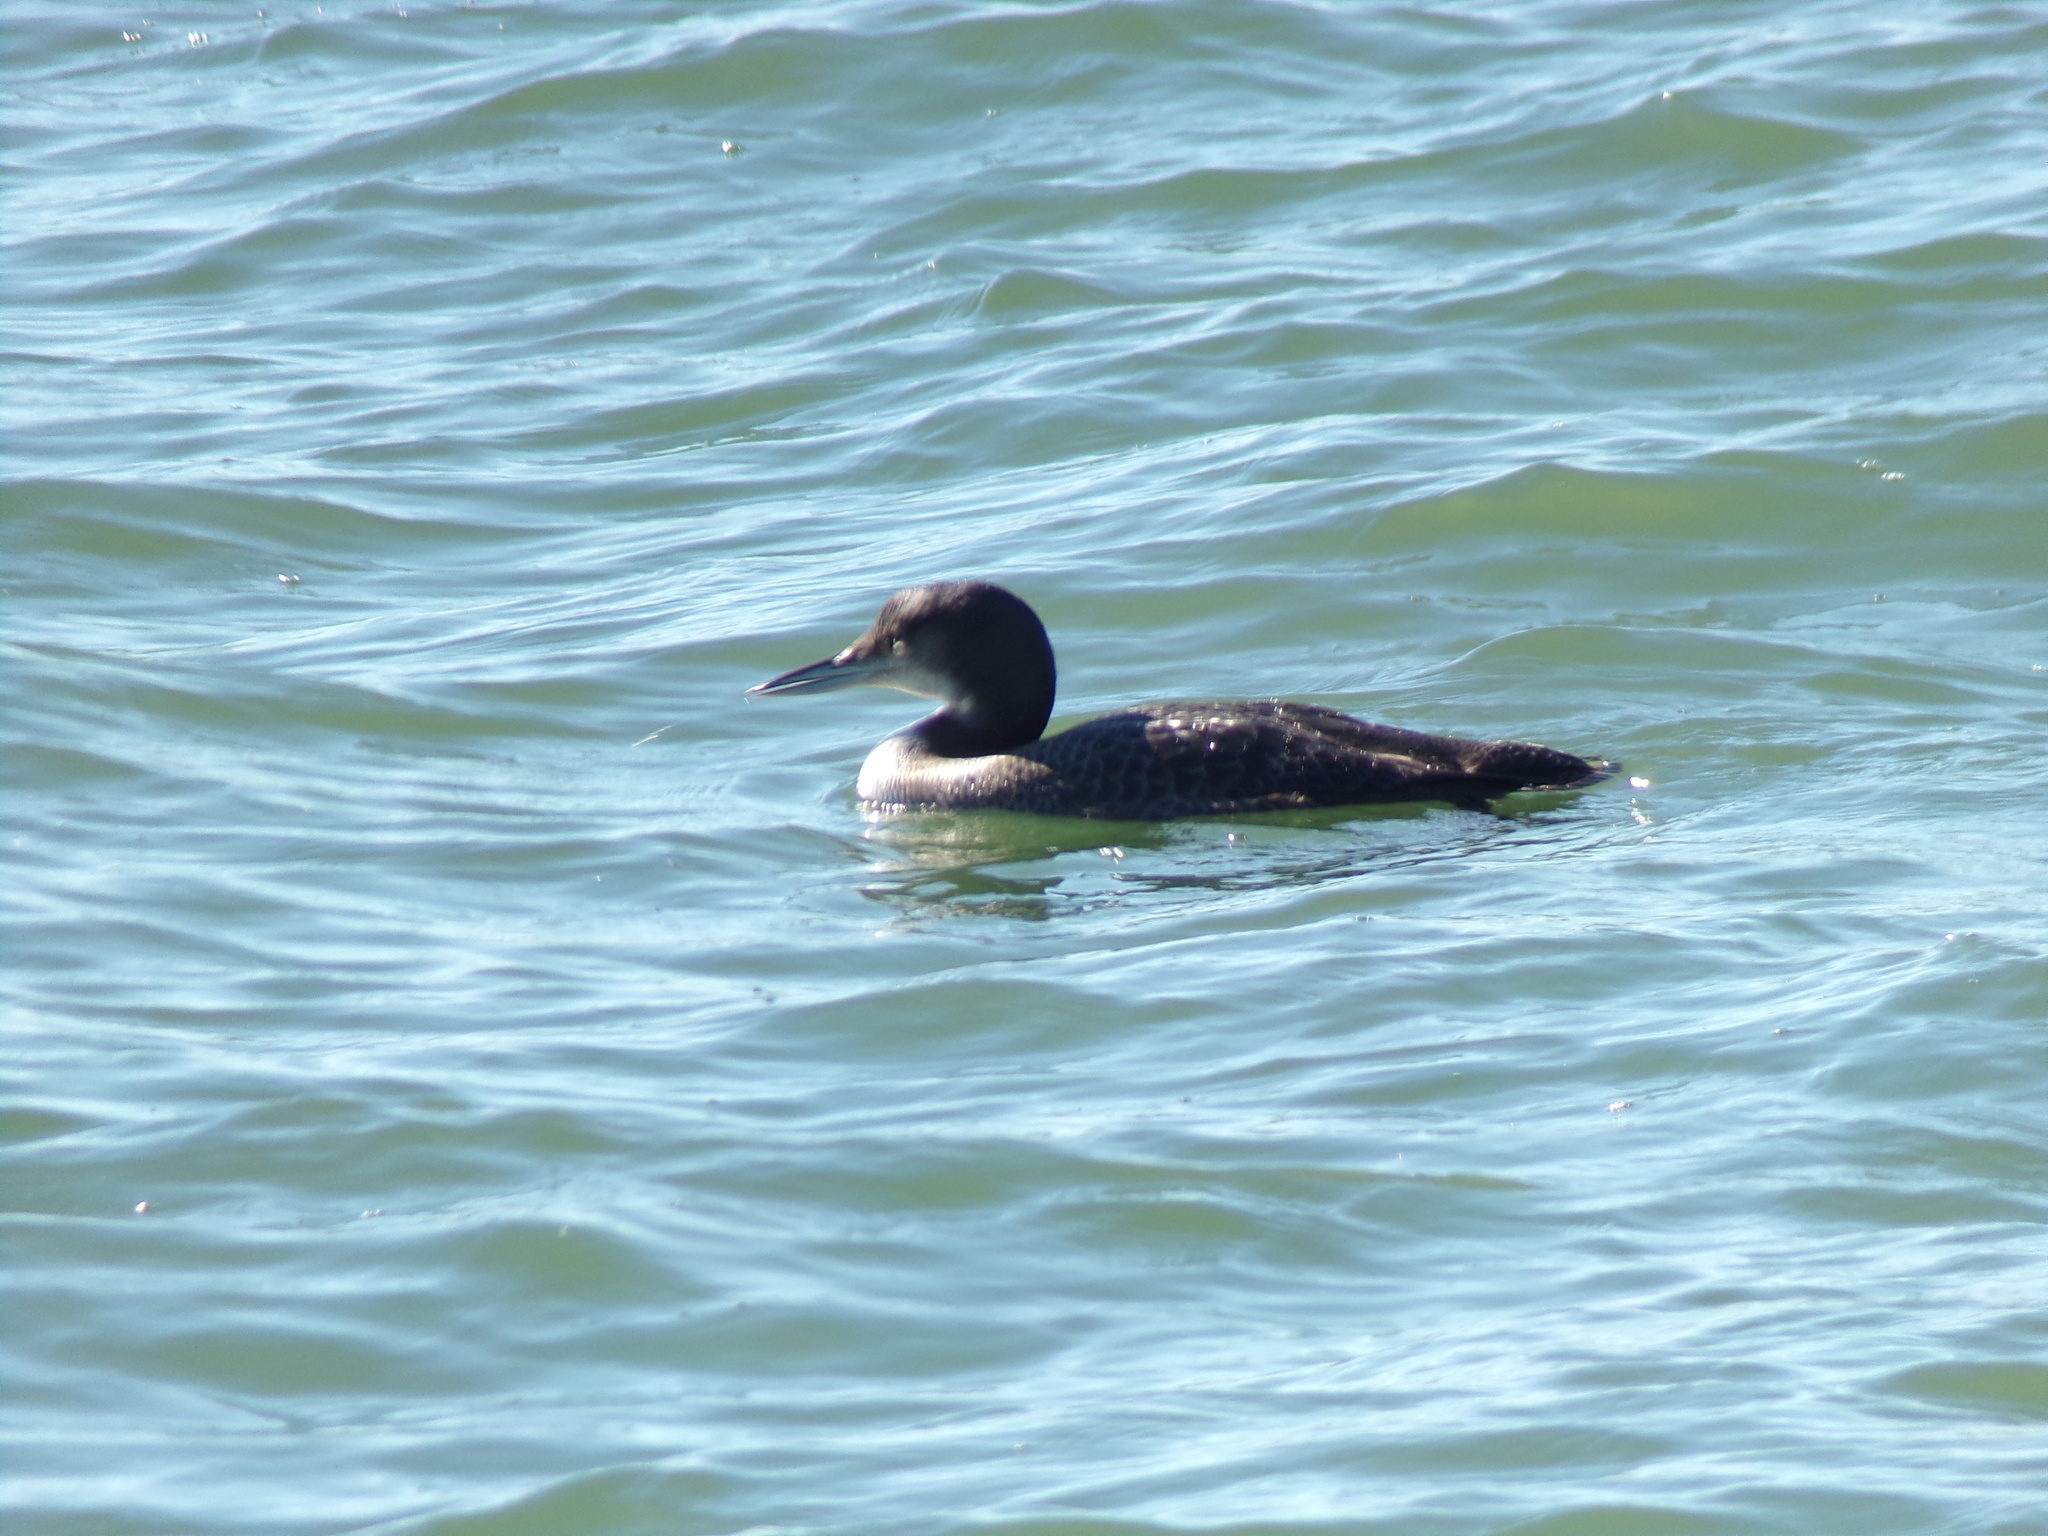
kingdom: Animalia
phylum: Chordata
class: Aves
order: Gaviiformes
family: Gaviidae
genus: Gavia
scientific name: Gavia immer
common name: Common loon
